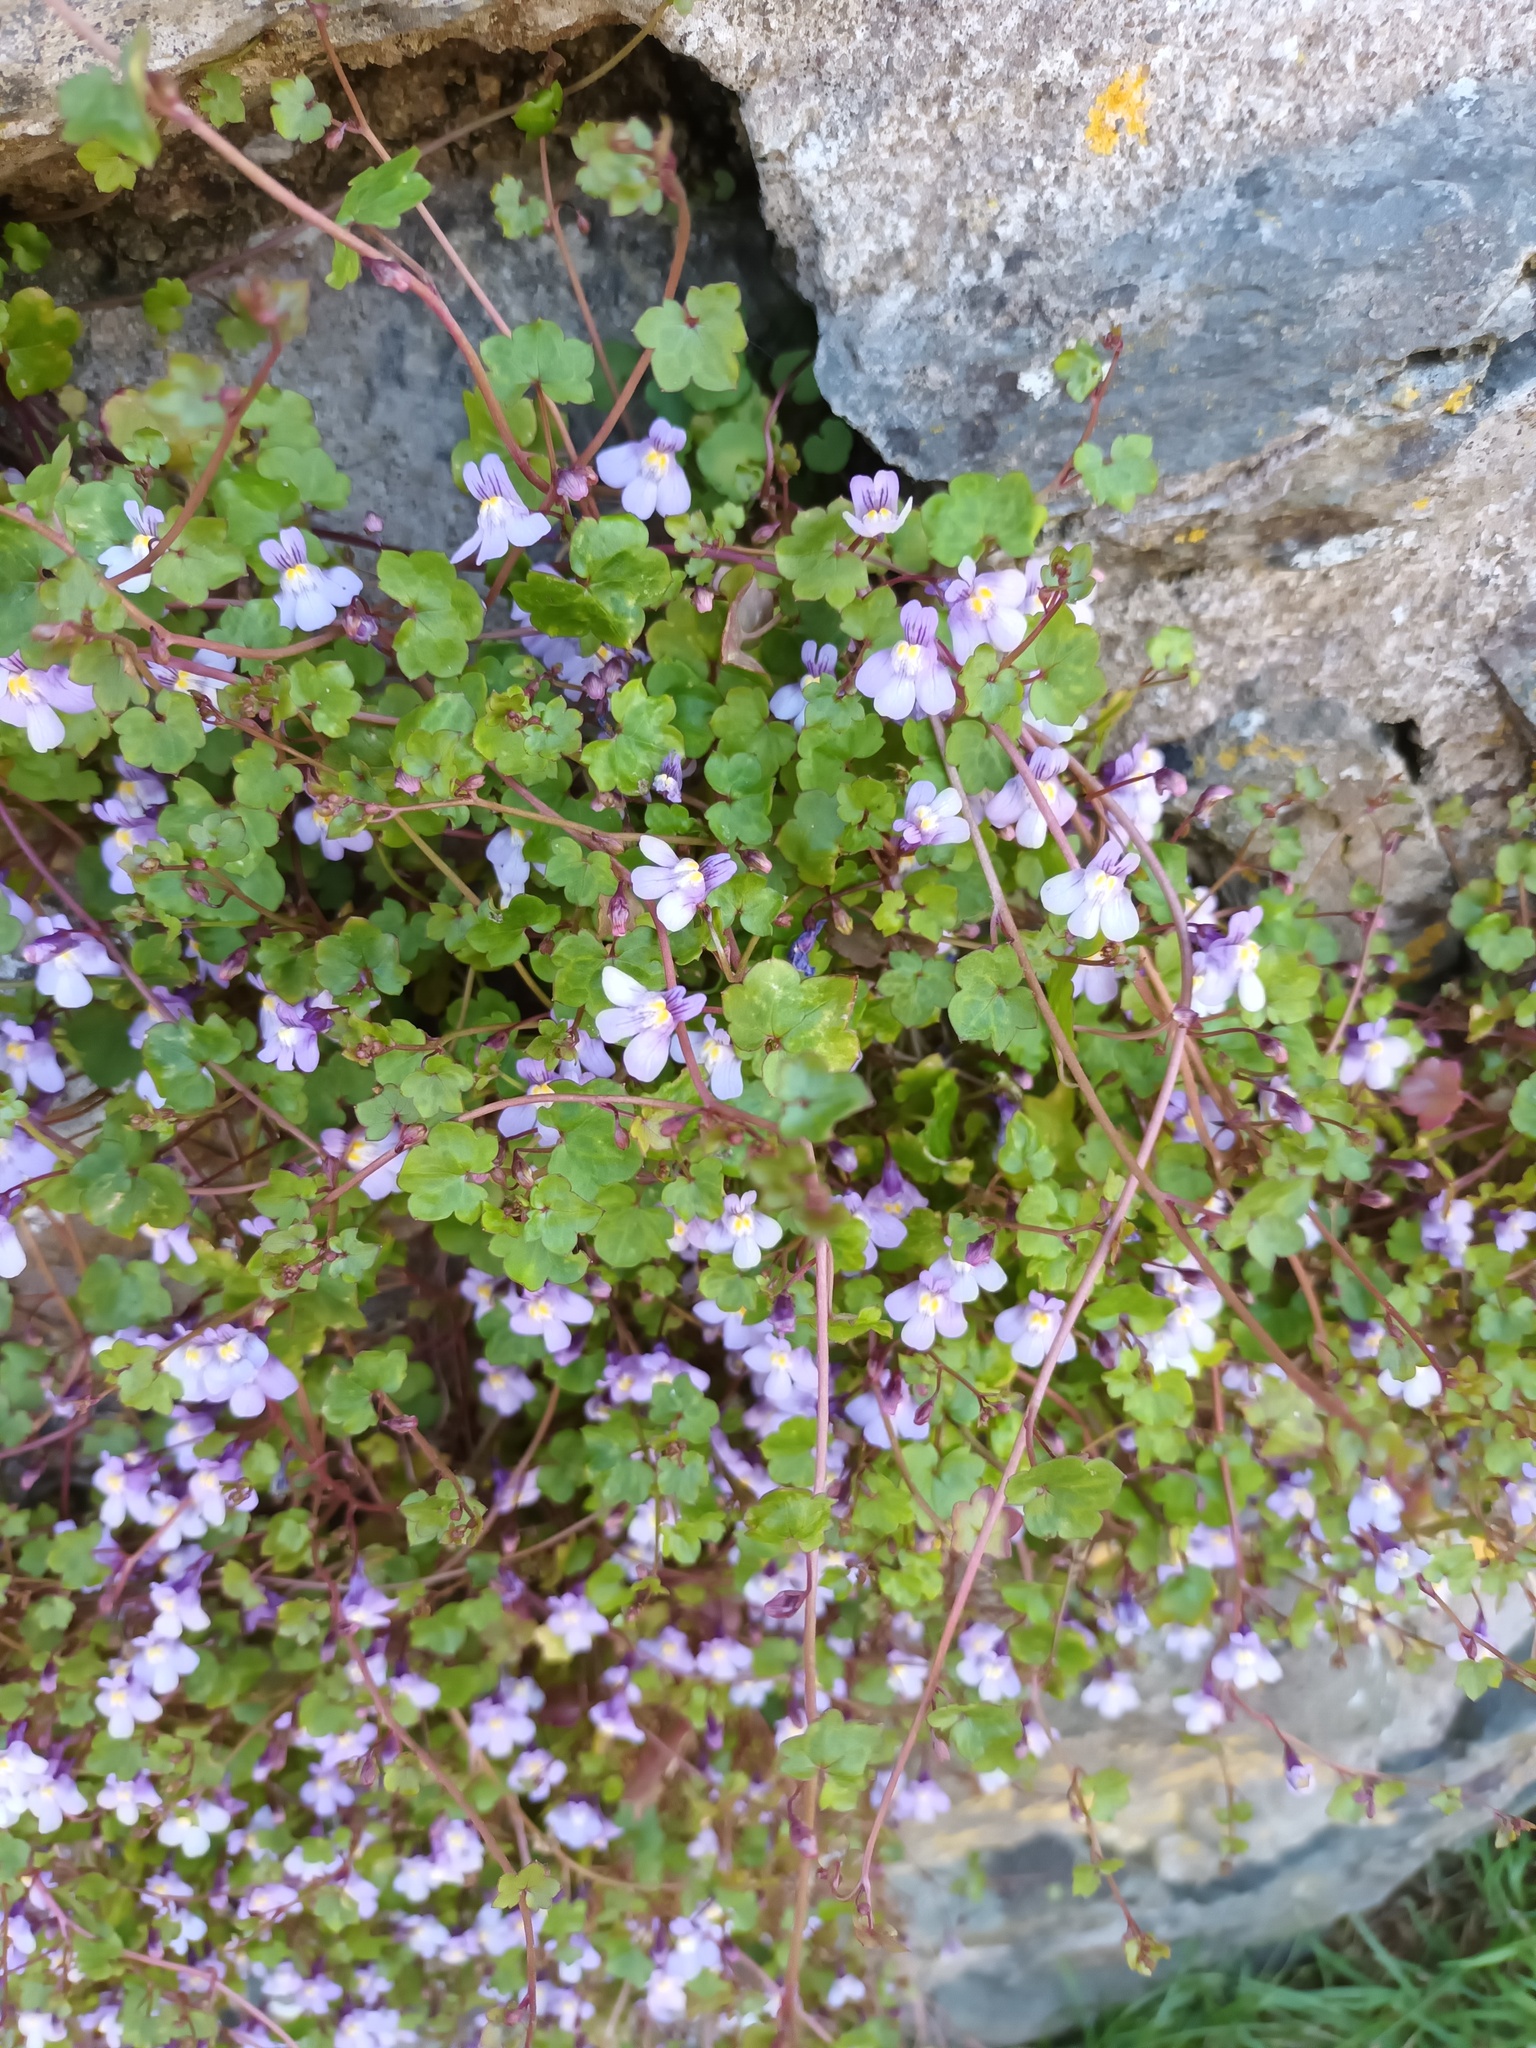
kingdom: Plantae
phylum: Tracheophyta
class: Magnoliopsida
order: Lamiales
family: Plantaginaceae
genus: Cymbalaria
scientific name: Cymbalaria muralis
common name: Ivy-leaved toadflax
